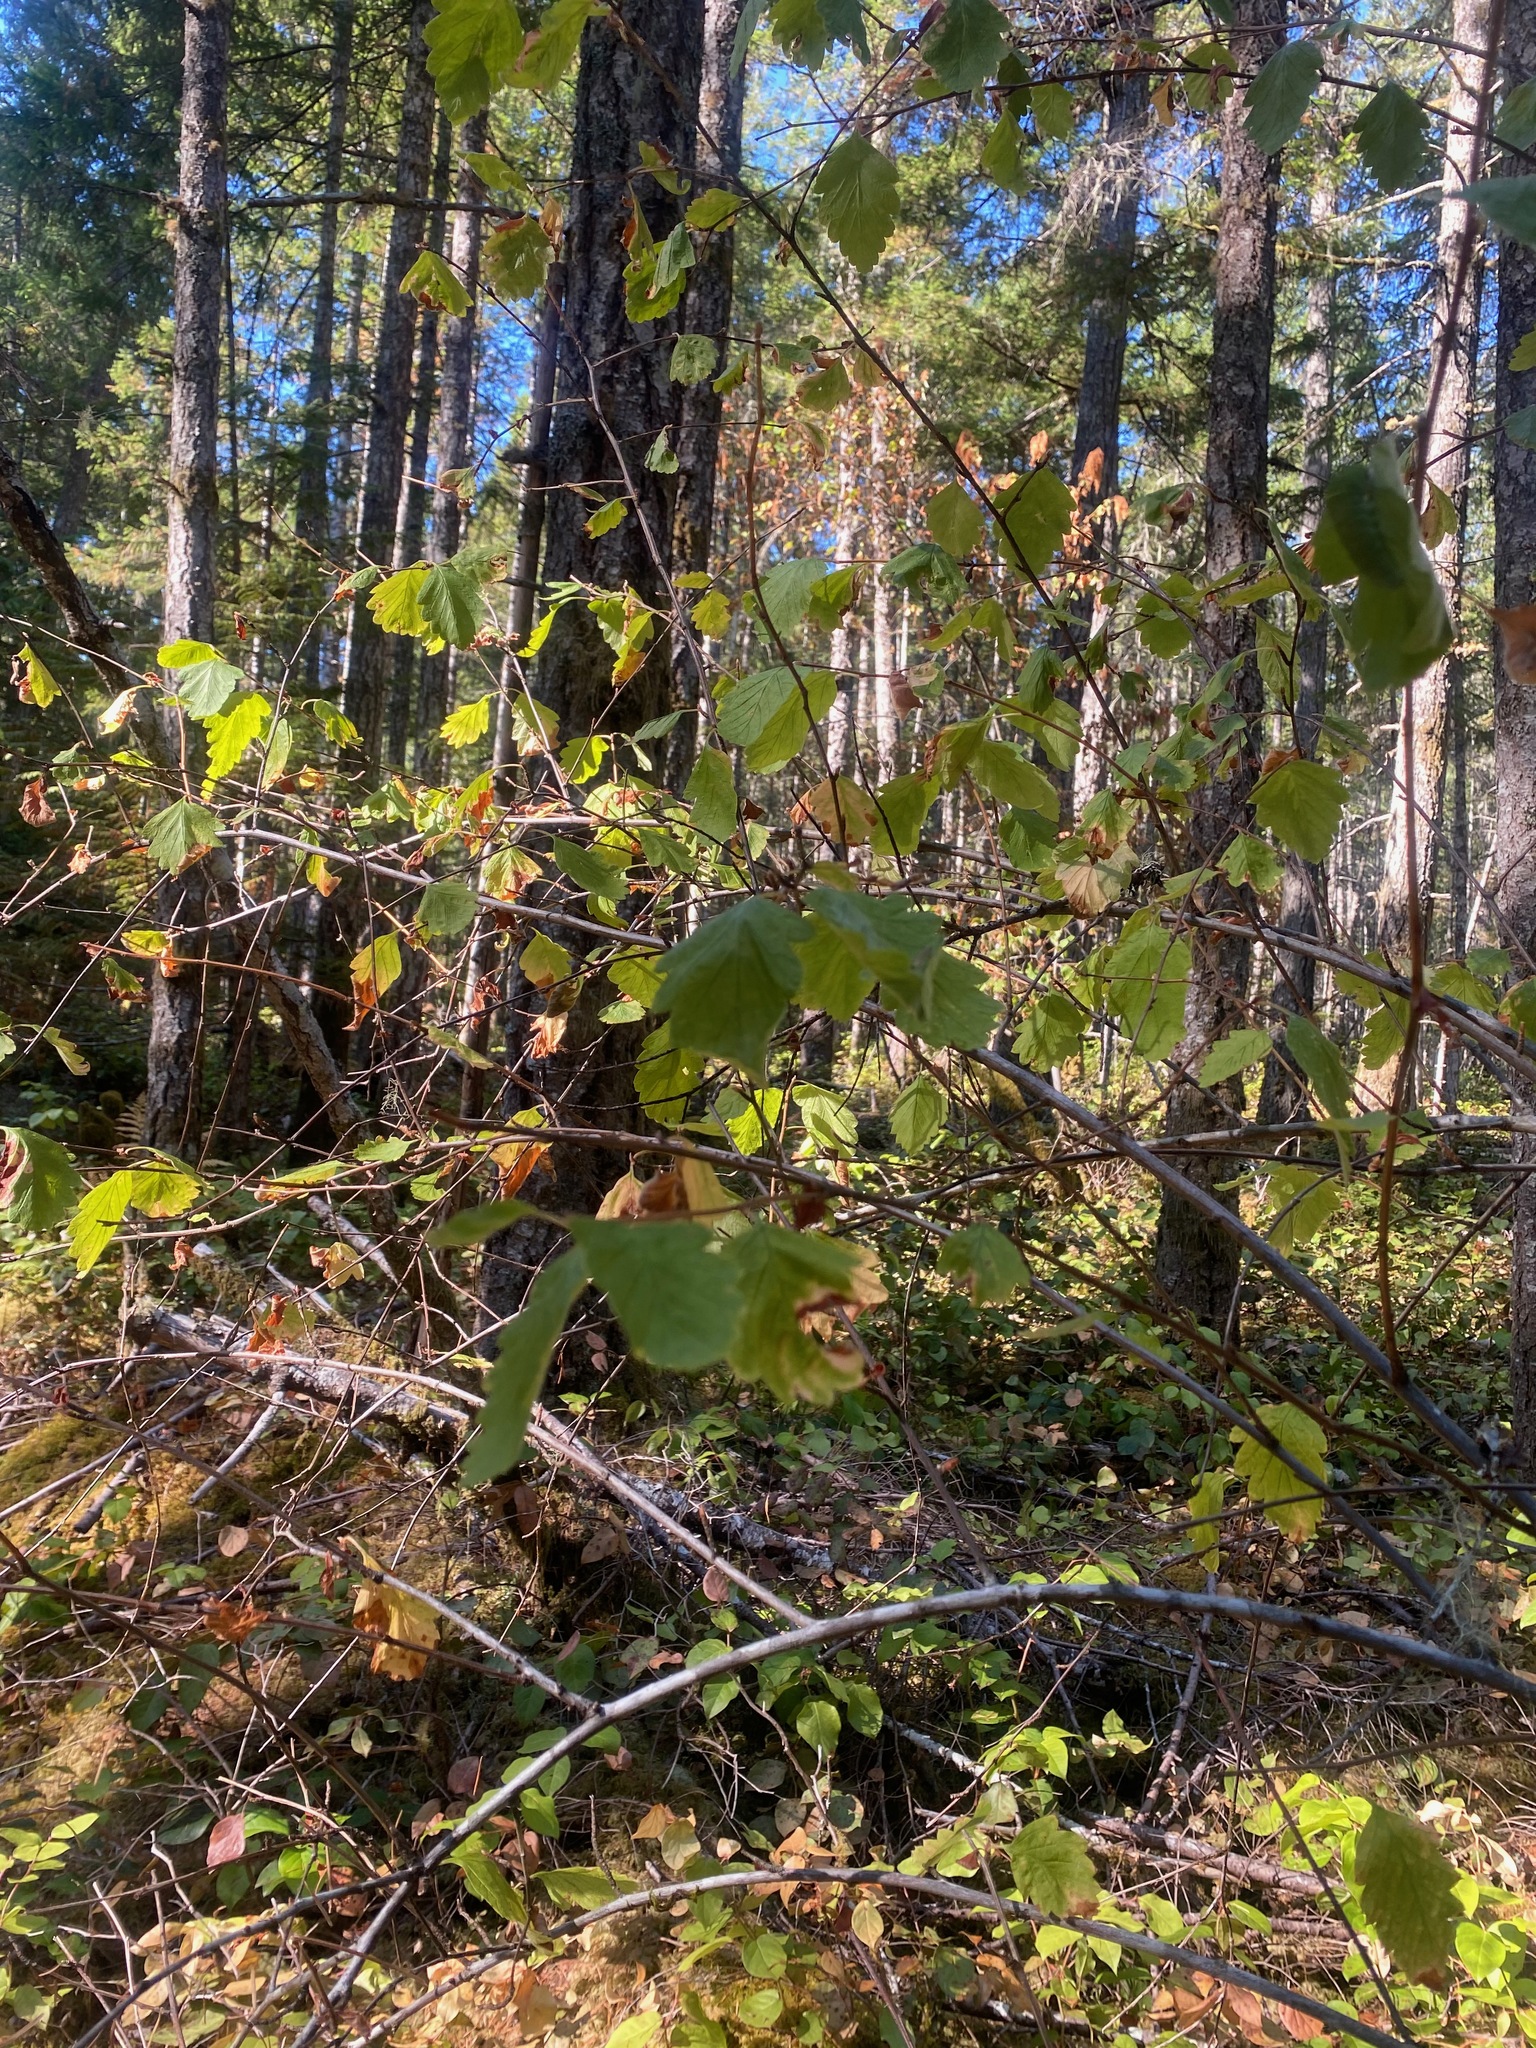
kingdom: Plantae
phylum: Tracheophyta
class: Magnoliopsida
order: Rosales
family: Rosaceae
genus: Holodiscus
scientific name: Holodiscus discolor
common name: Oceanspray
